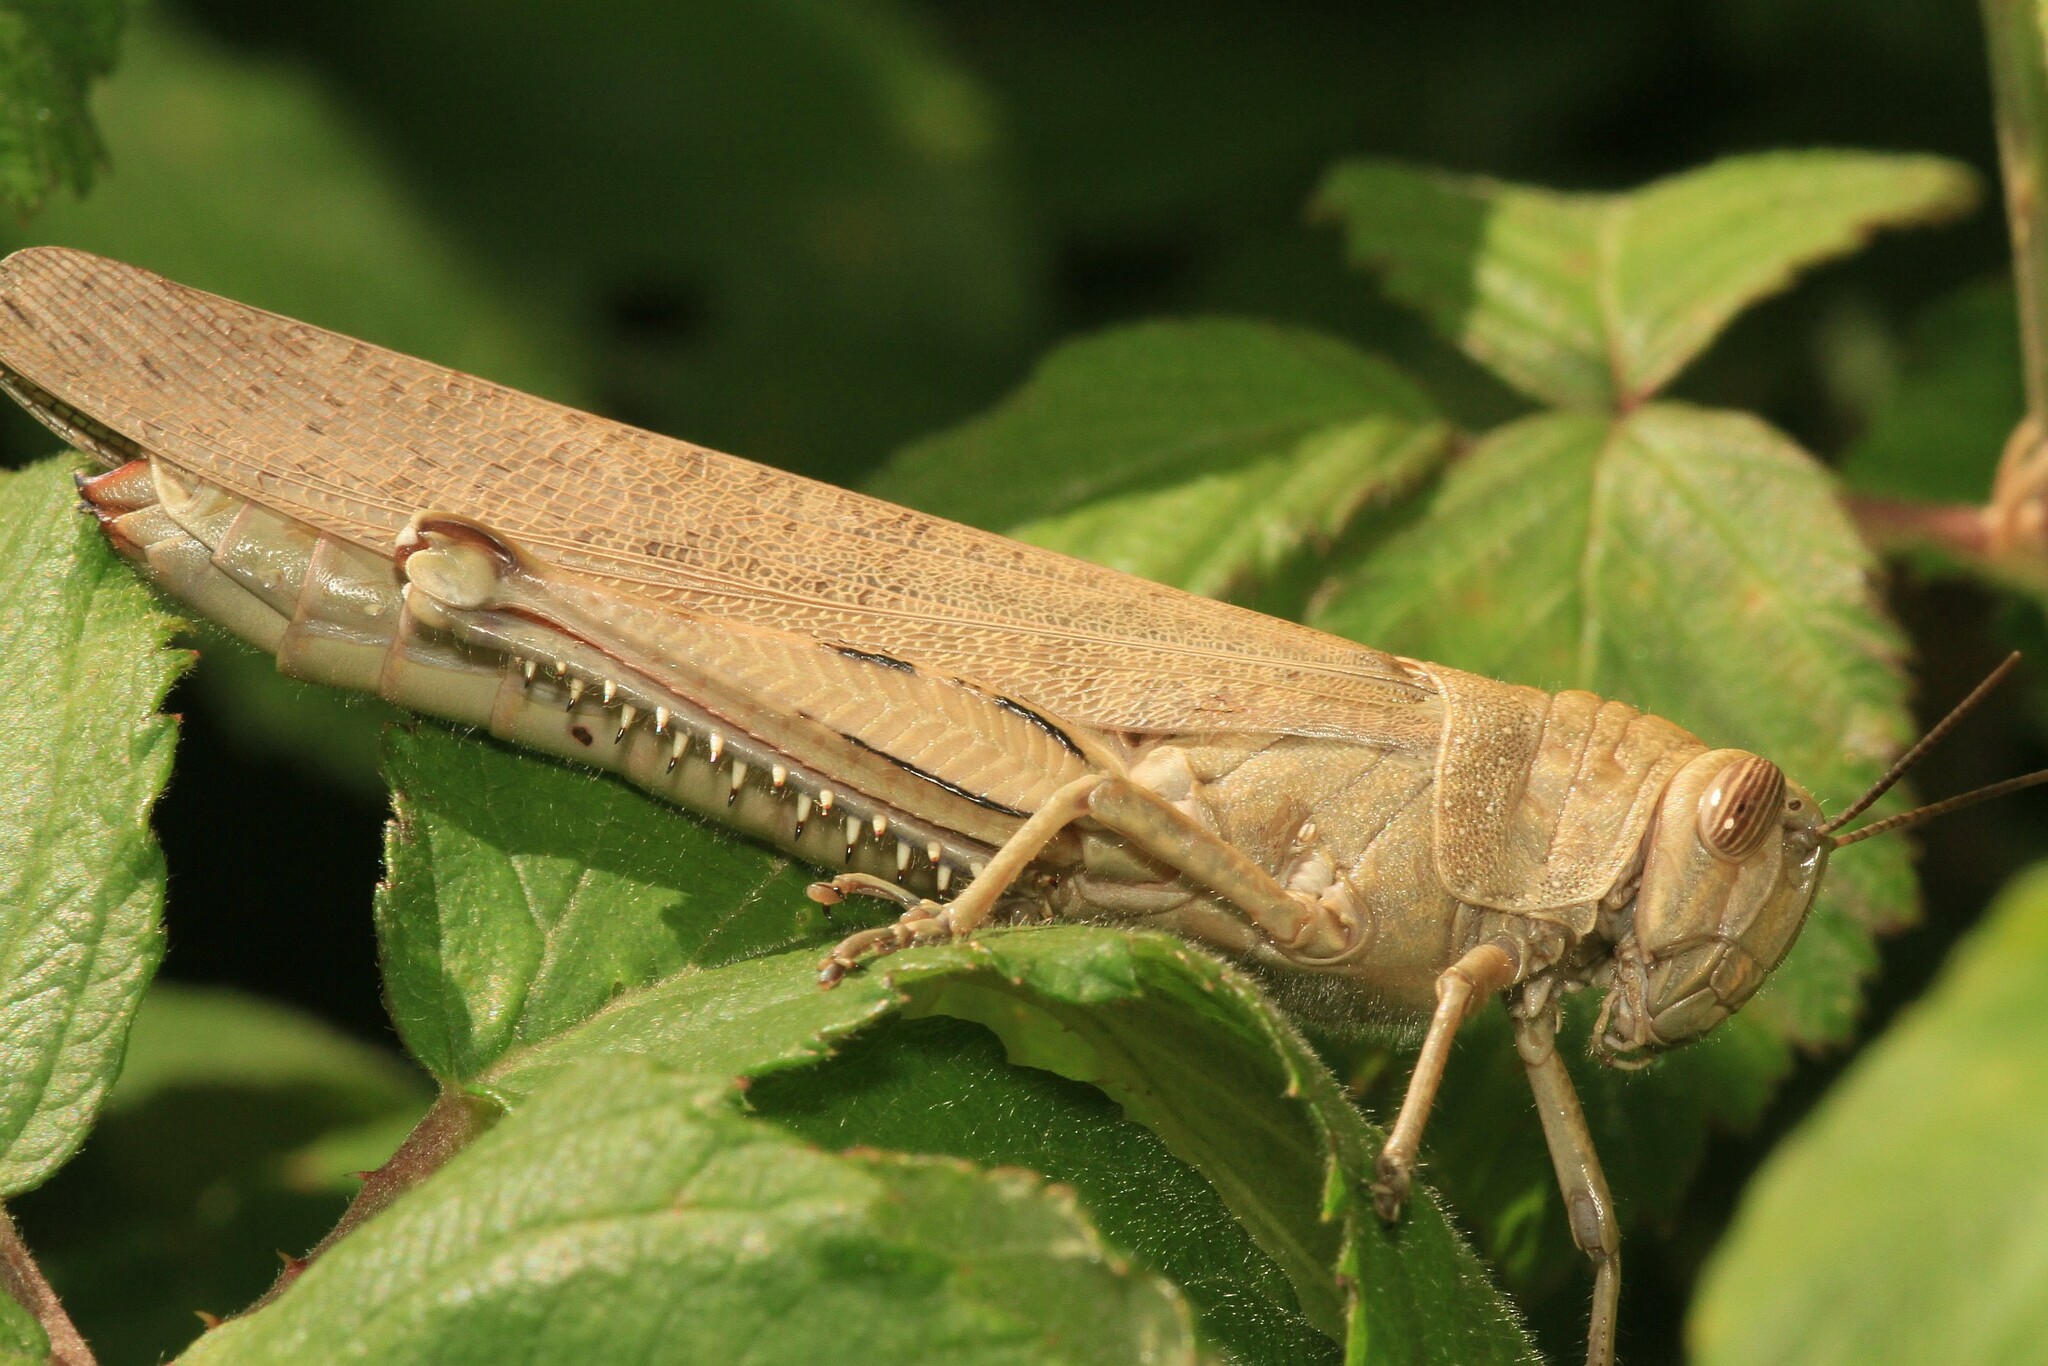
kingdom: Animalia
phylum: Arthropoda
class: Insecta
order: Orthoptera
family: Acrididae
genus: Anacridium
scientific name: Anacridium aegyptium
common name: Egyptian grasshopper
